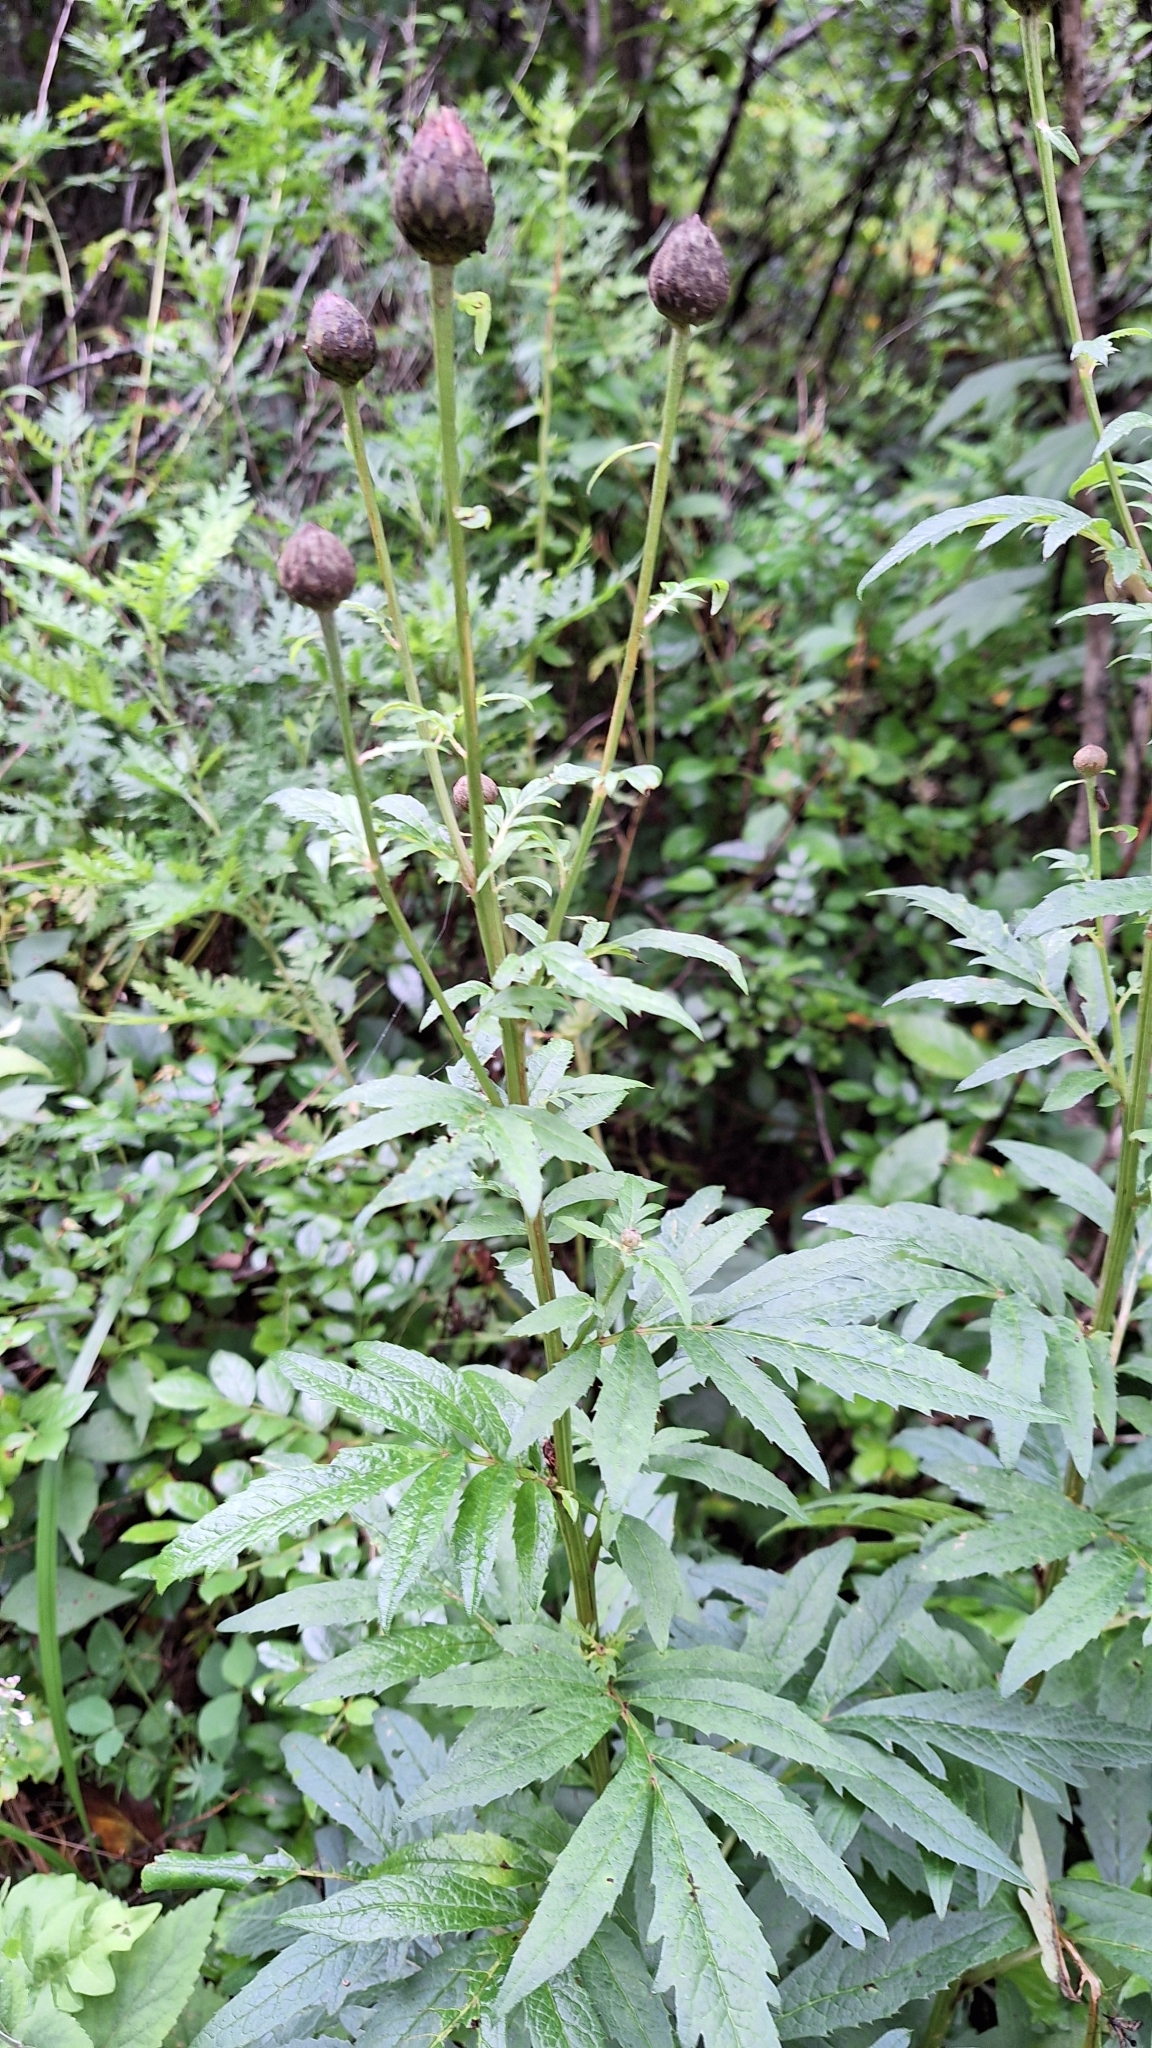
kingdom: Plantae
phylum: Tracheophyta
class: Magnoliopsida
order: Asterales
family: Asteraceae
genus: Serratula
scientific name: Serratula coronata
